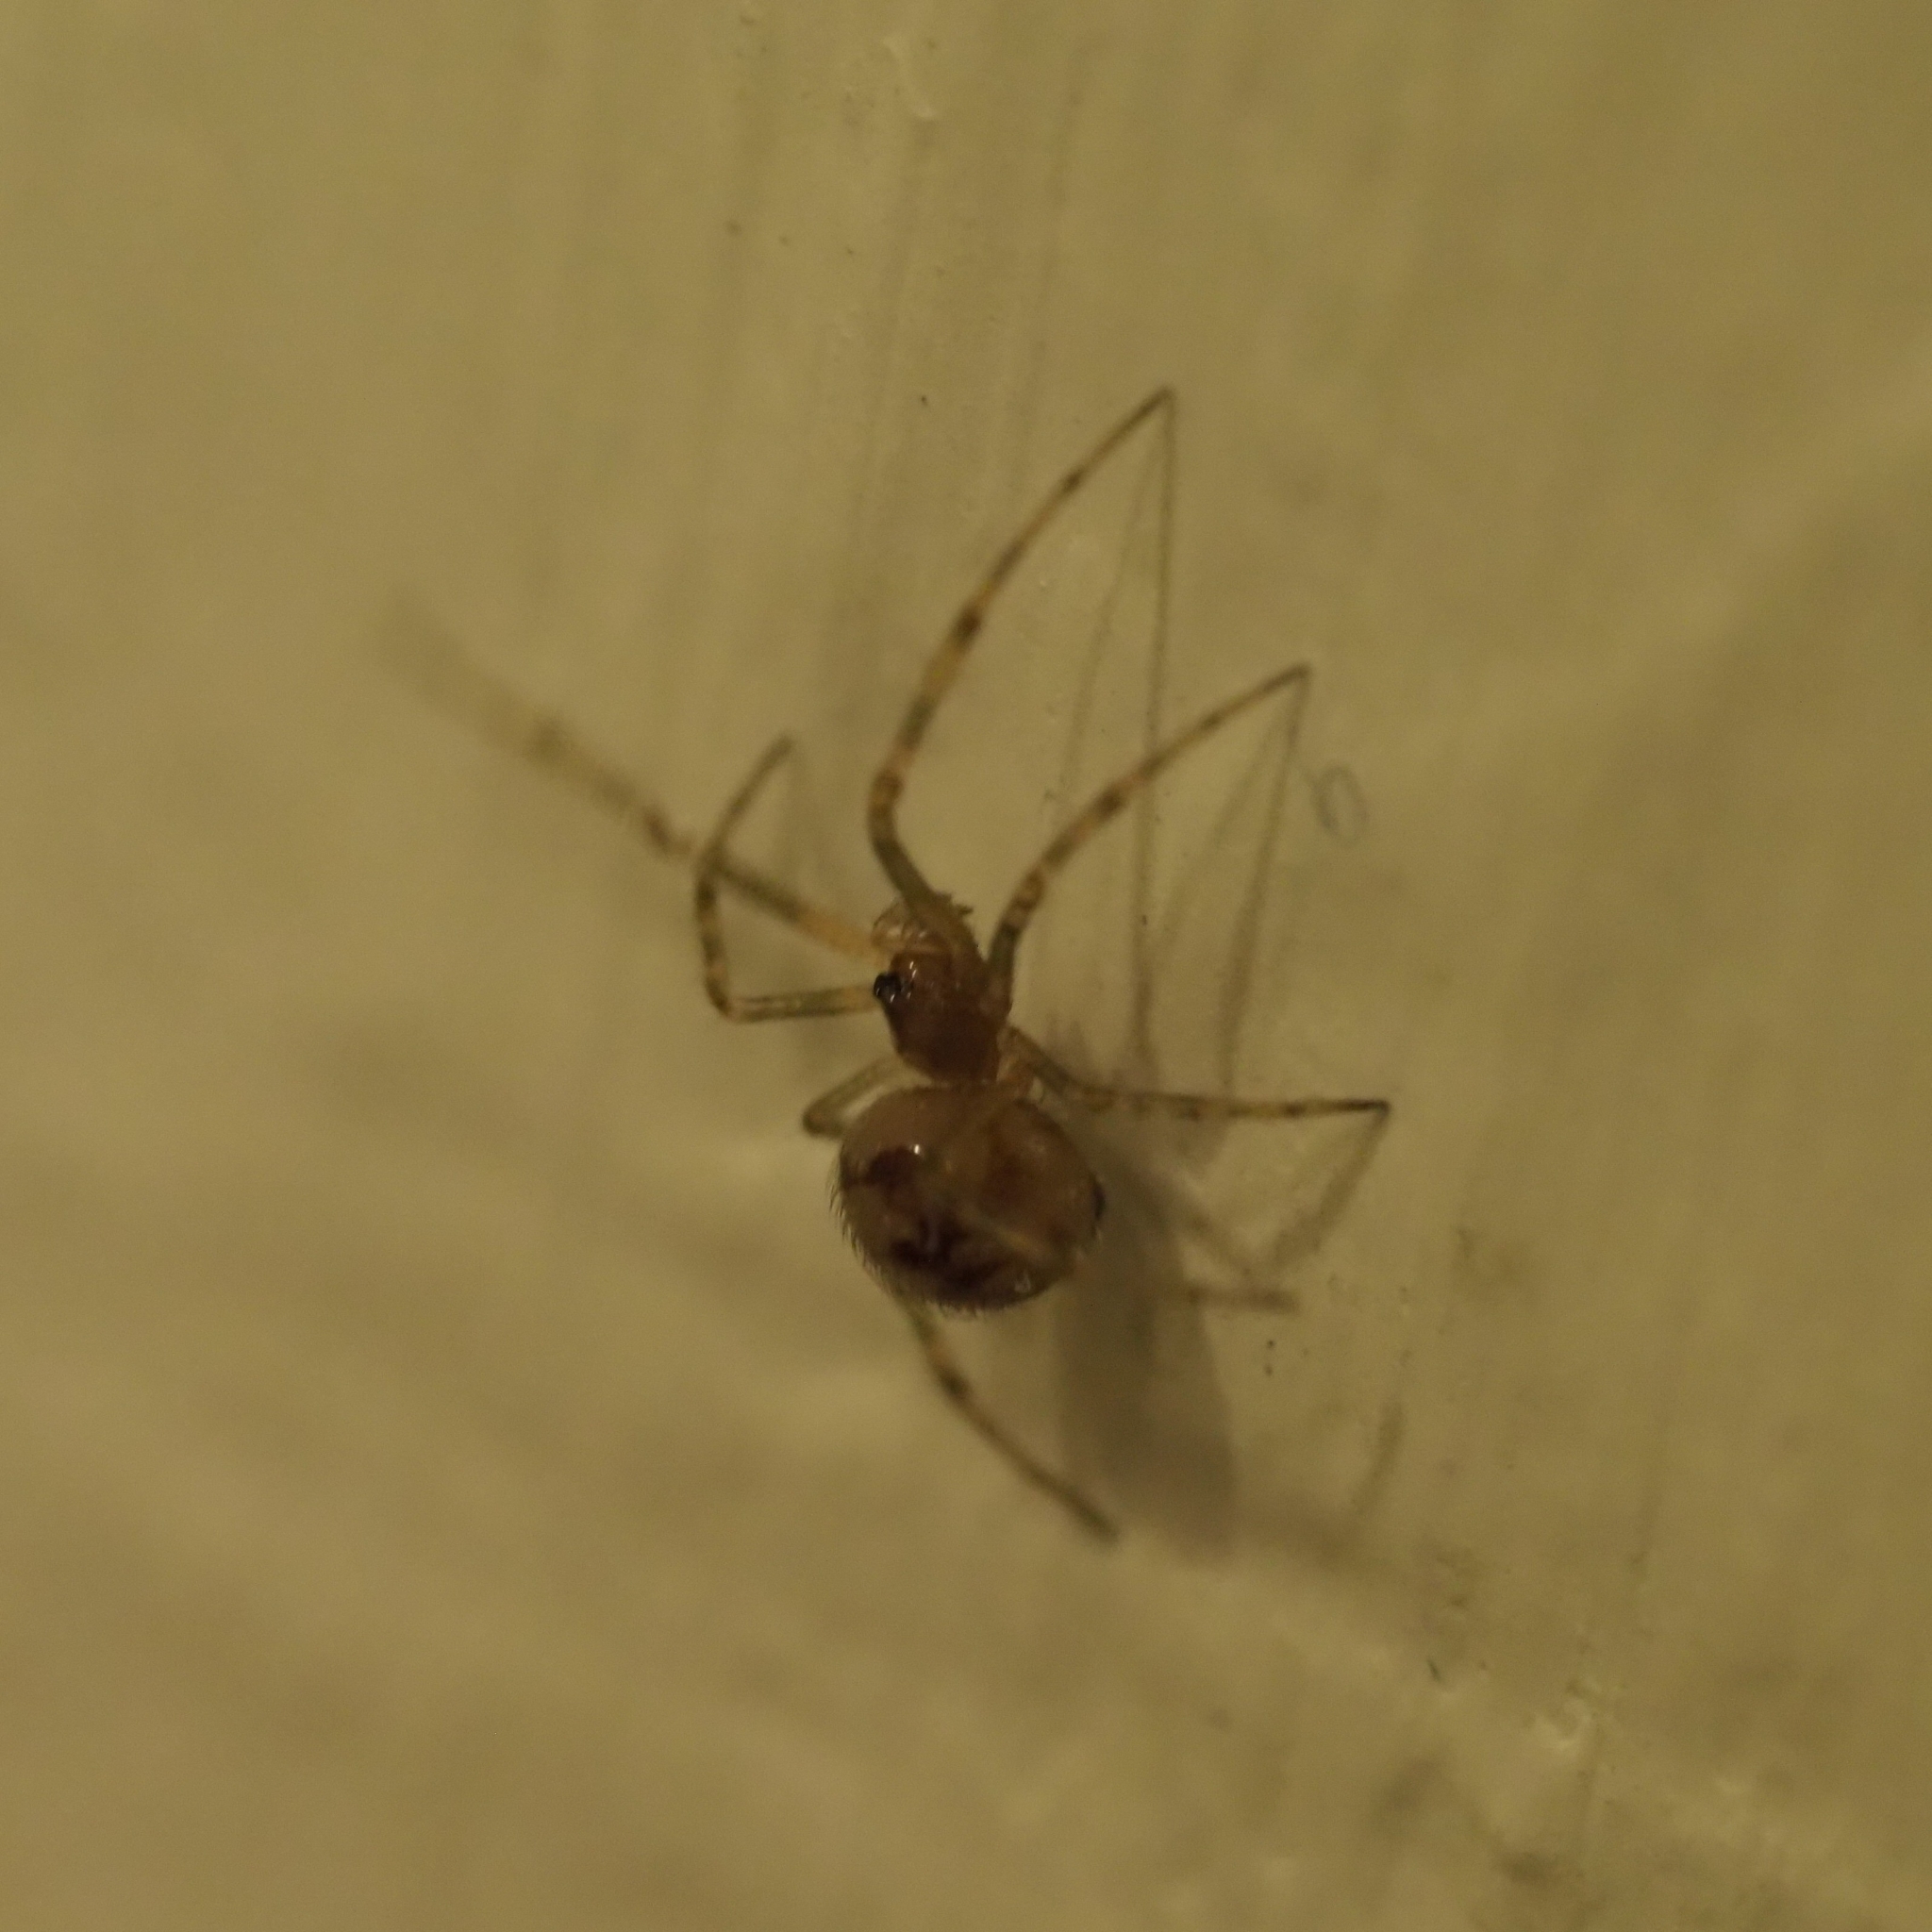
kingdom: Animalia
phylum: Arthropoda
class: Arachnida
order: Araneae
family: Theridiidae
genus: Steatoda
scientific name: Steatoda triangulosa
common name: Triangulate bud spider
